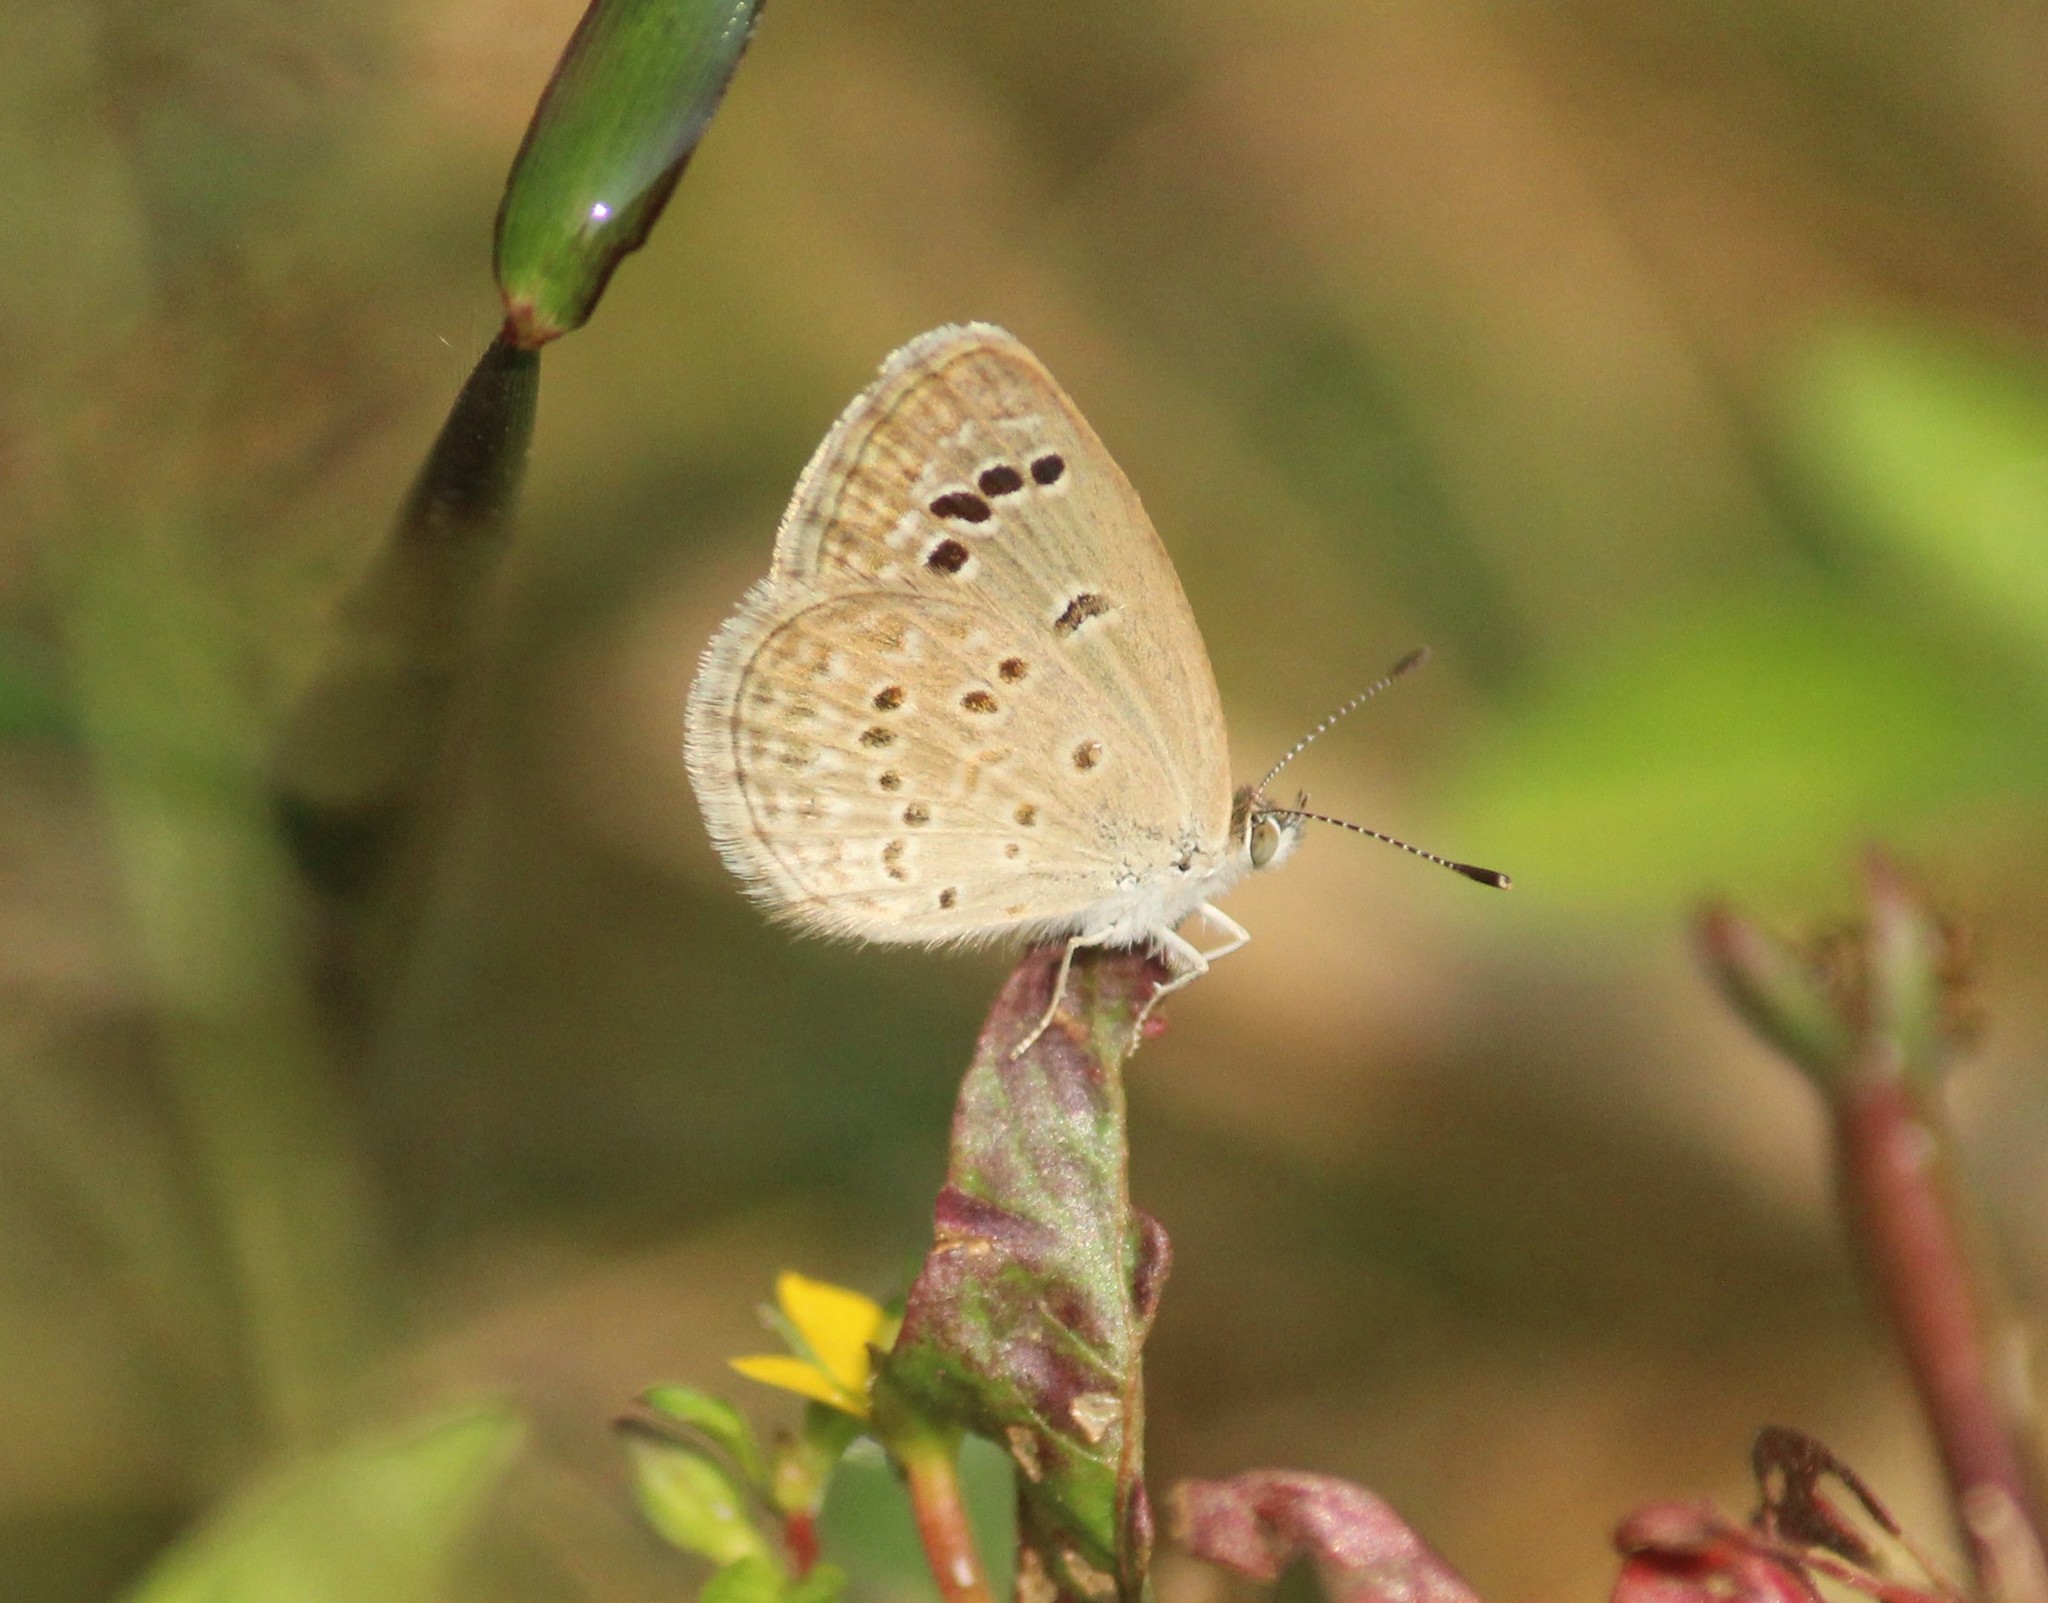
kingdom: Animalia
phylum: Arthropoda
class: Insecta
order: Lepidoptera
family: Lycaenidae
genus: Zizina
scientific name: Zizina otis
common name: Lesser grass blue
